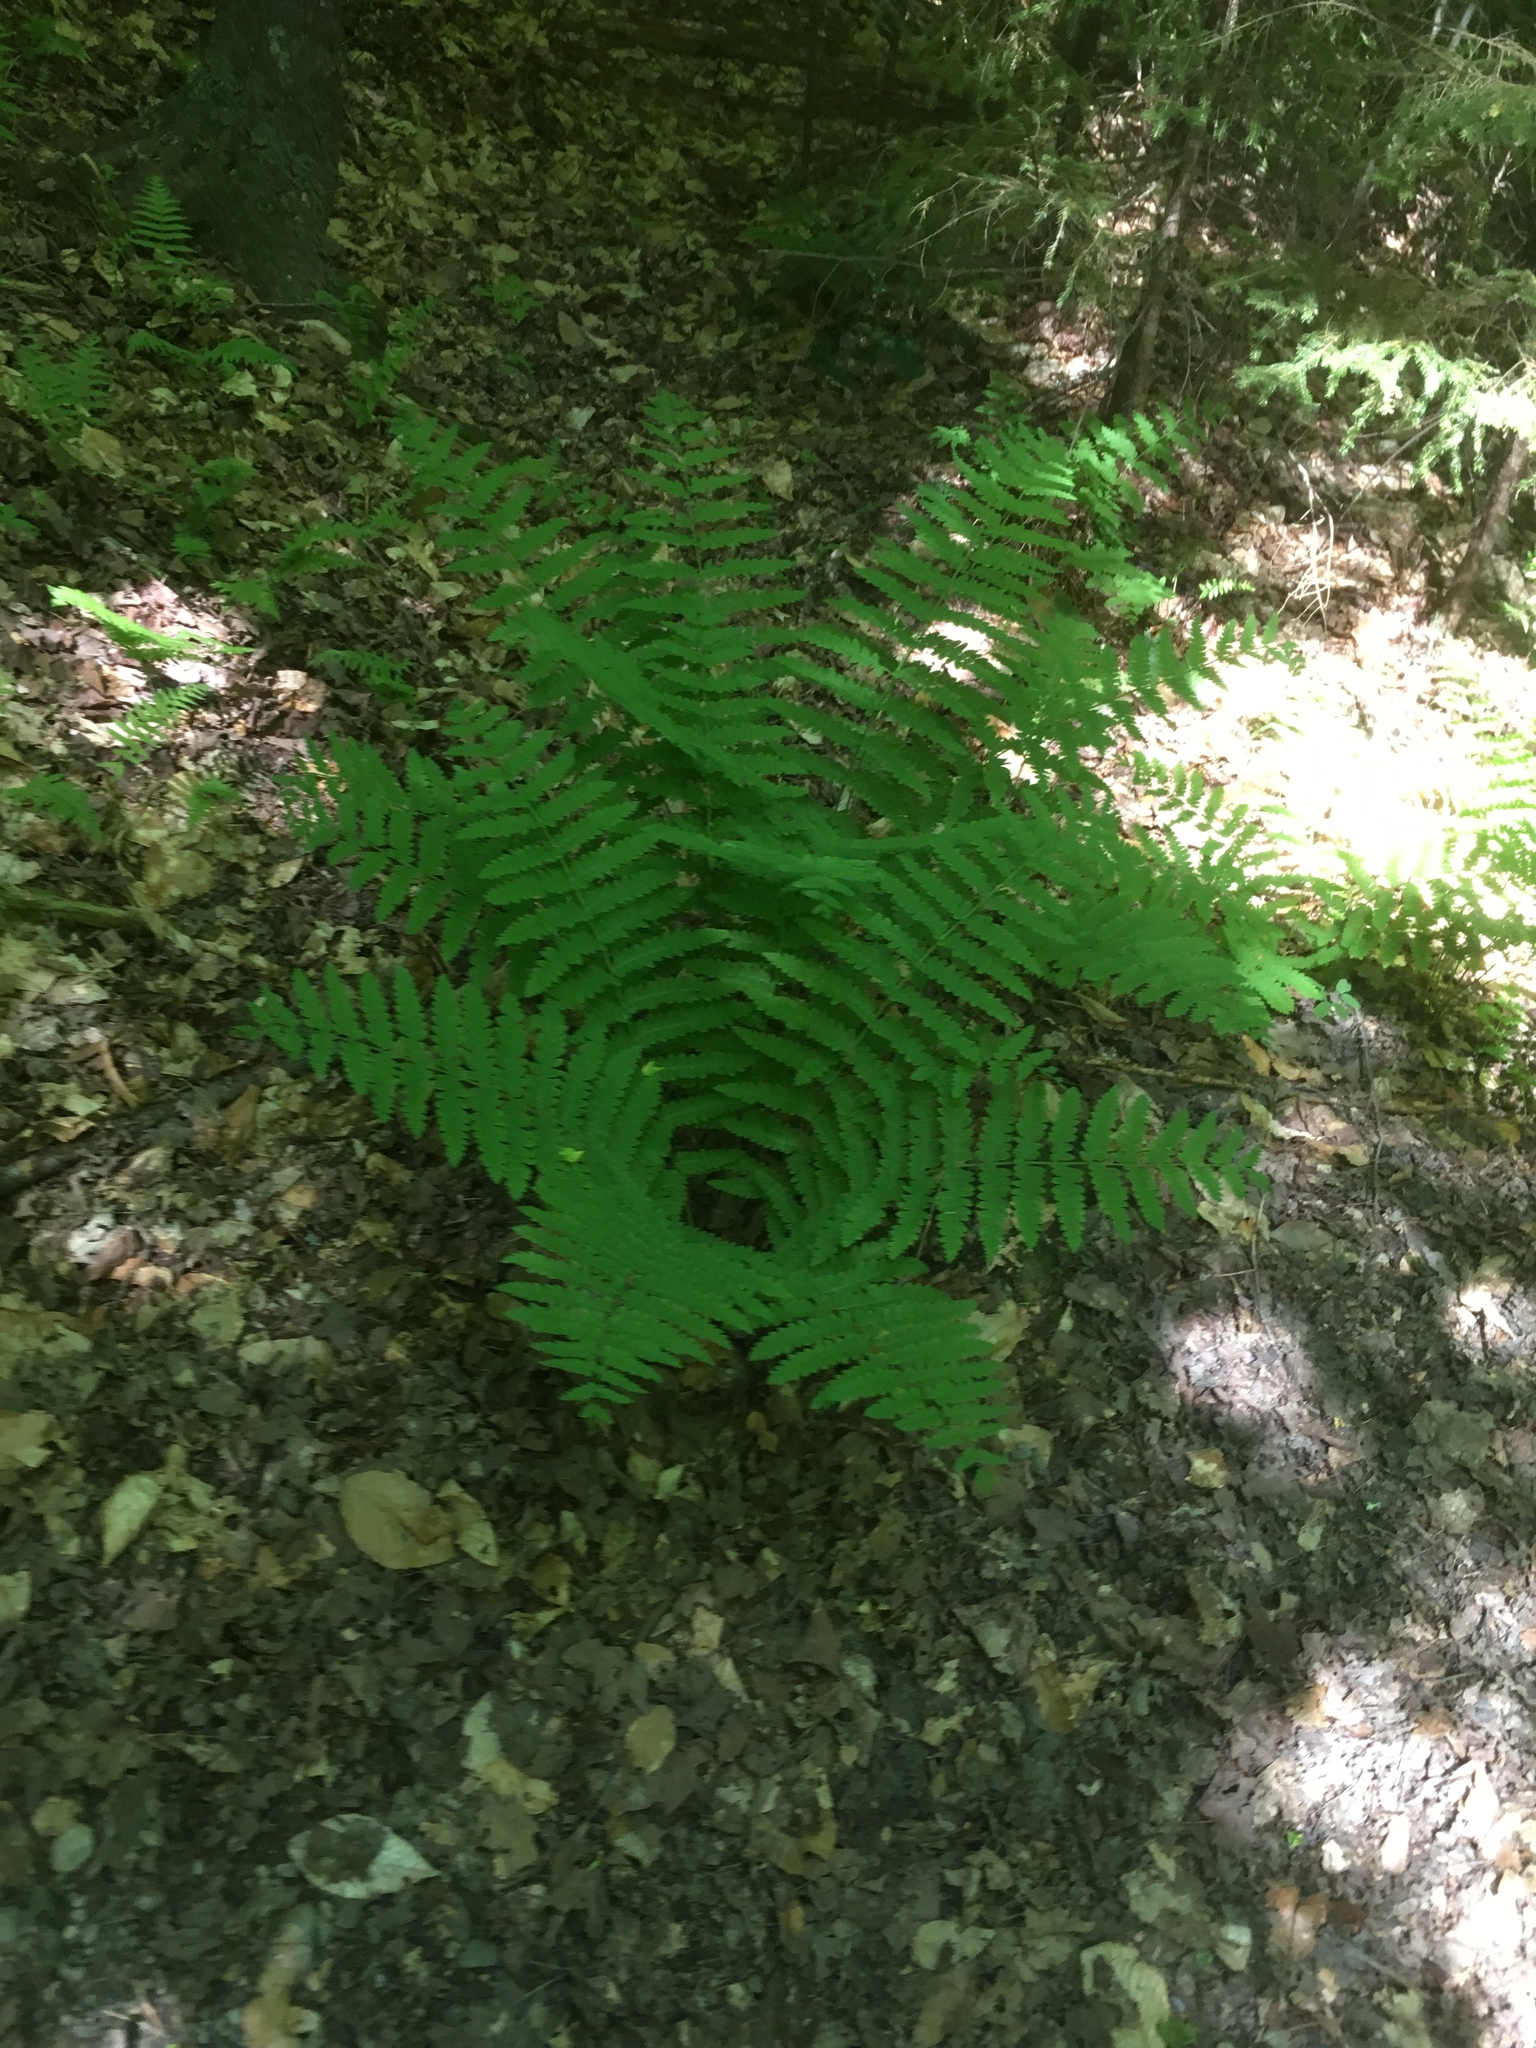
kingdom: Plantae
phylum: Tracheophyta
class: Polypodiopsida
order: Osmundales
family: Osmundaceae
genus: Claytosmunda
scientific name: Claytosmunda claytoniana
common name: Clayton's fern
